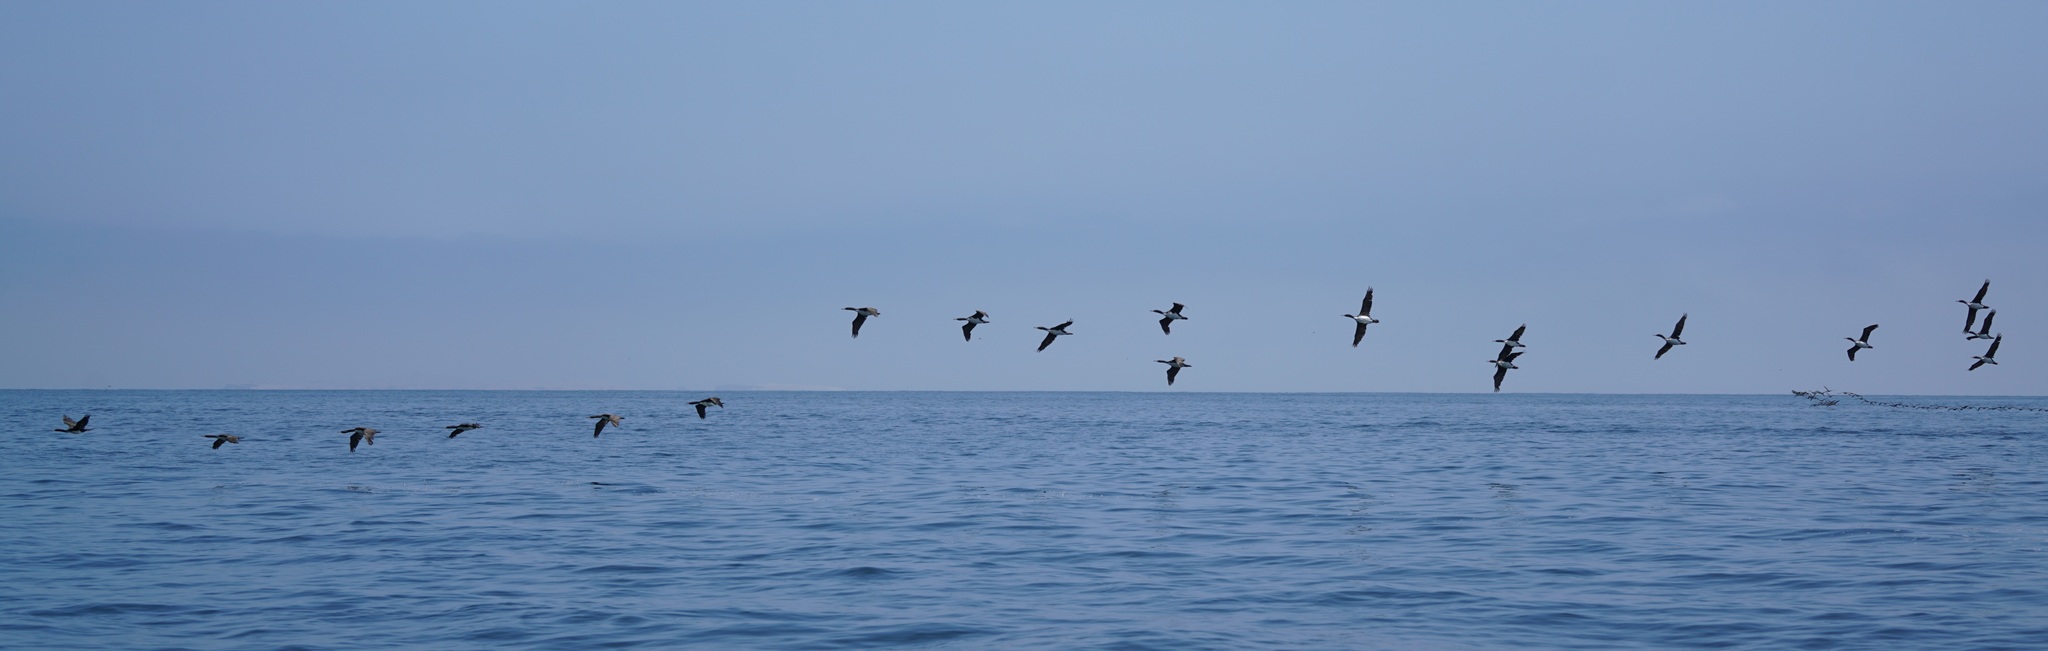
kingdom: Animalia
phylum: Chordata
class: Aves
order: Suliformes
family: Phalacrocoracidae
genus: Leucocarbo
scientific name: Leucocarbo bougainvillii
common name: Guanay cormorant
